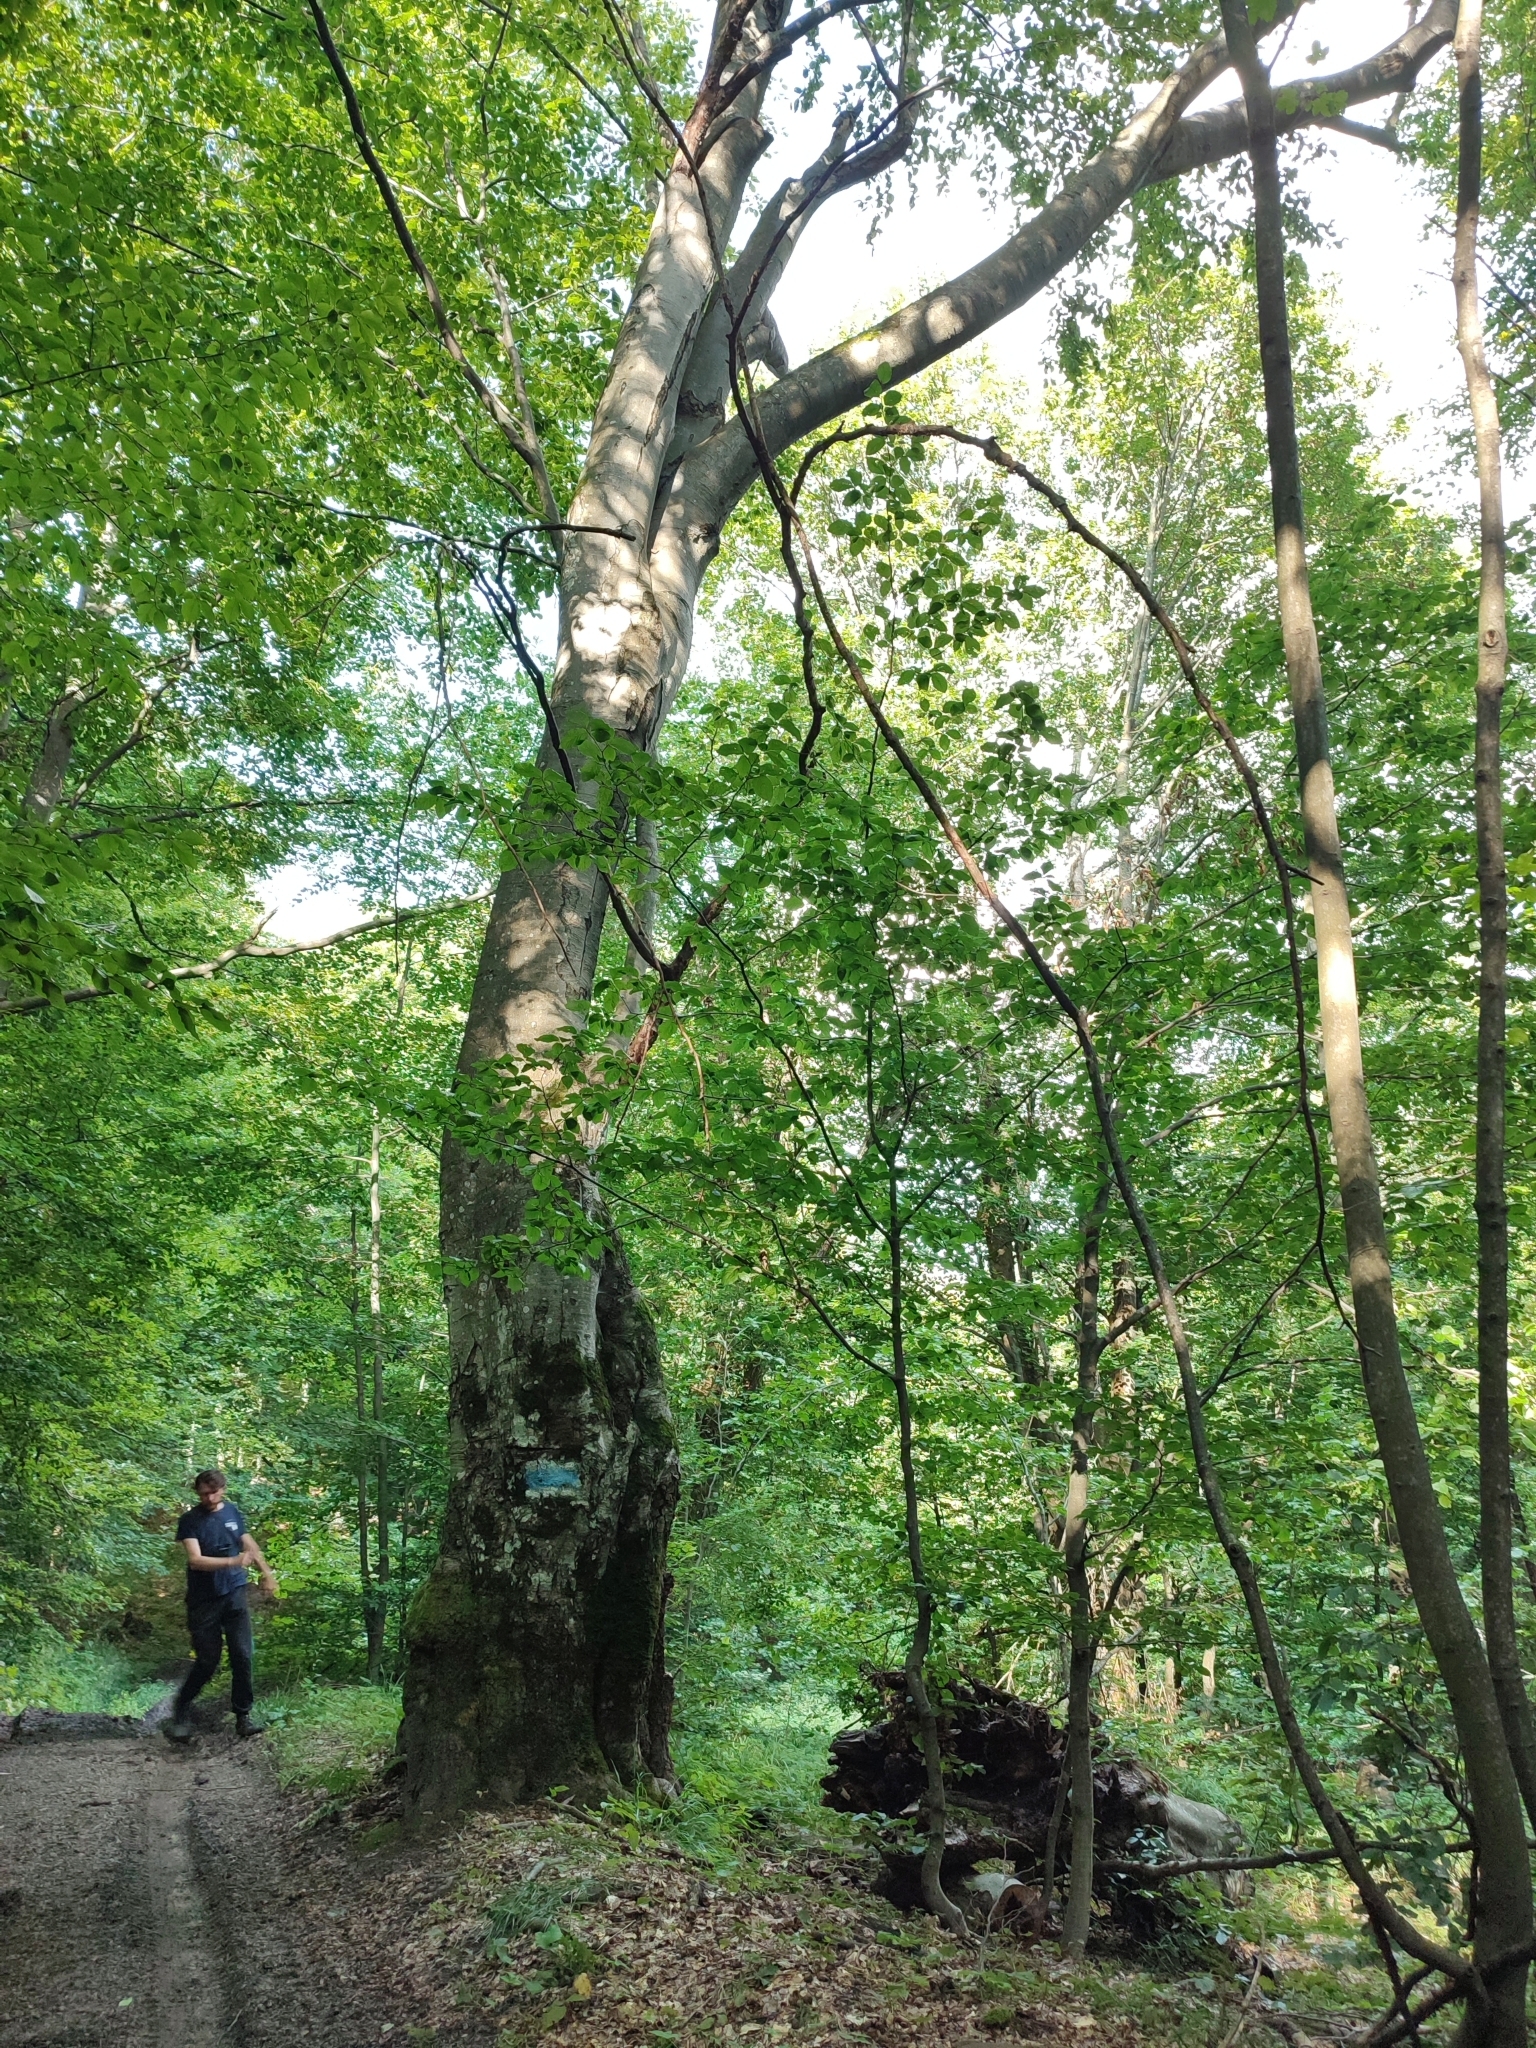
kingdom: Plantae
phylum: Tracheophyta
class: Magnoliopsida
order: Fagales
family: Fagaceae
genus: Fagus
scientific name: Fagus sylvatica
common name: Beech
